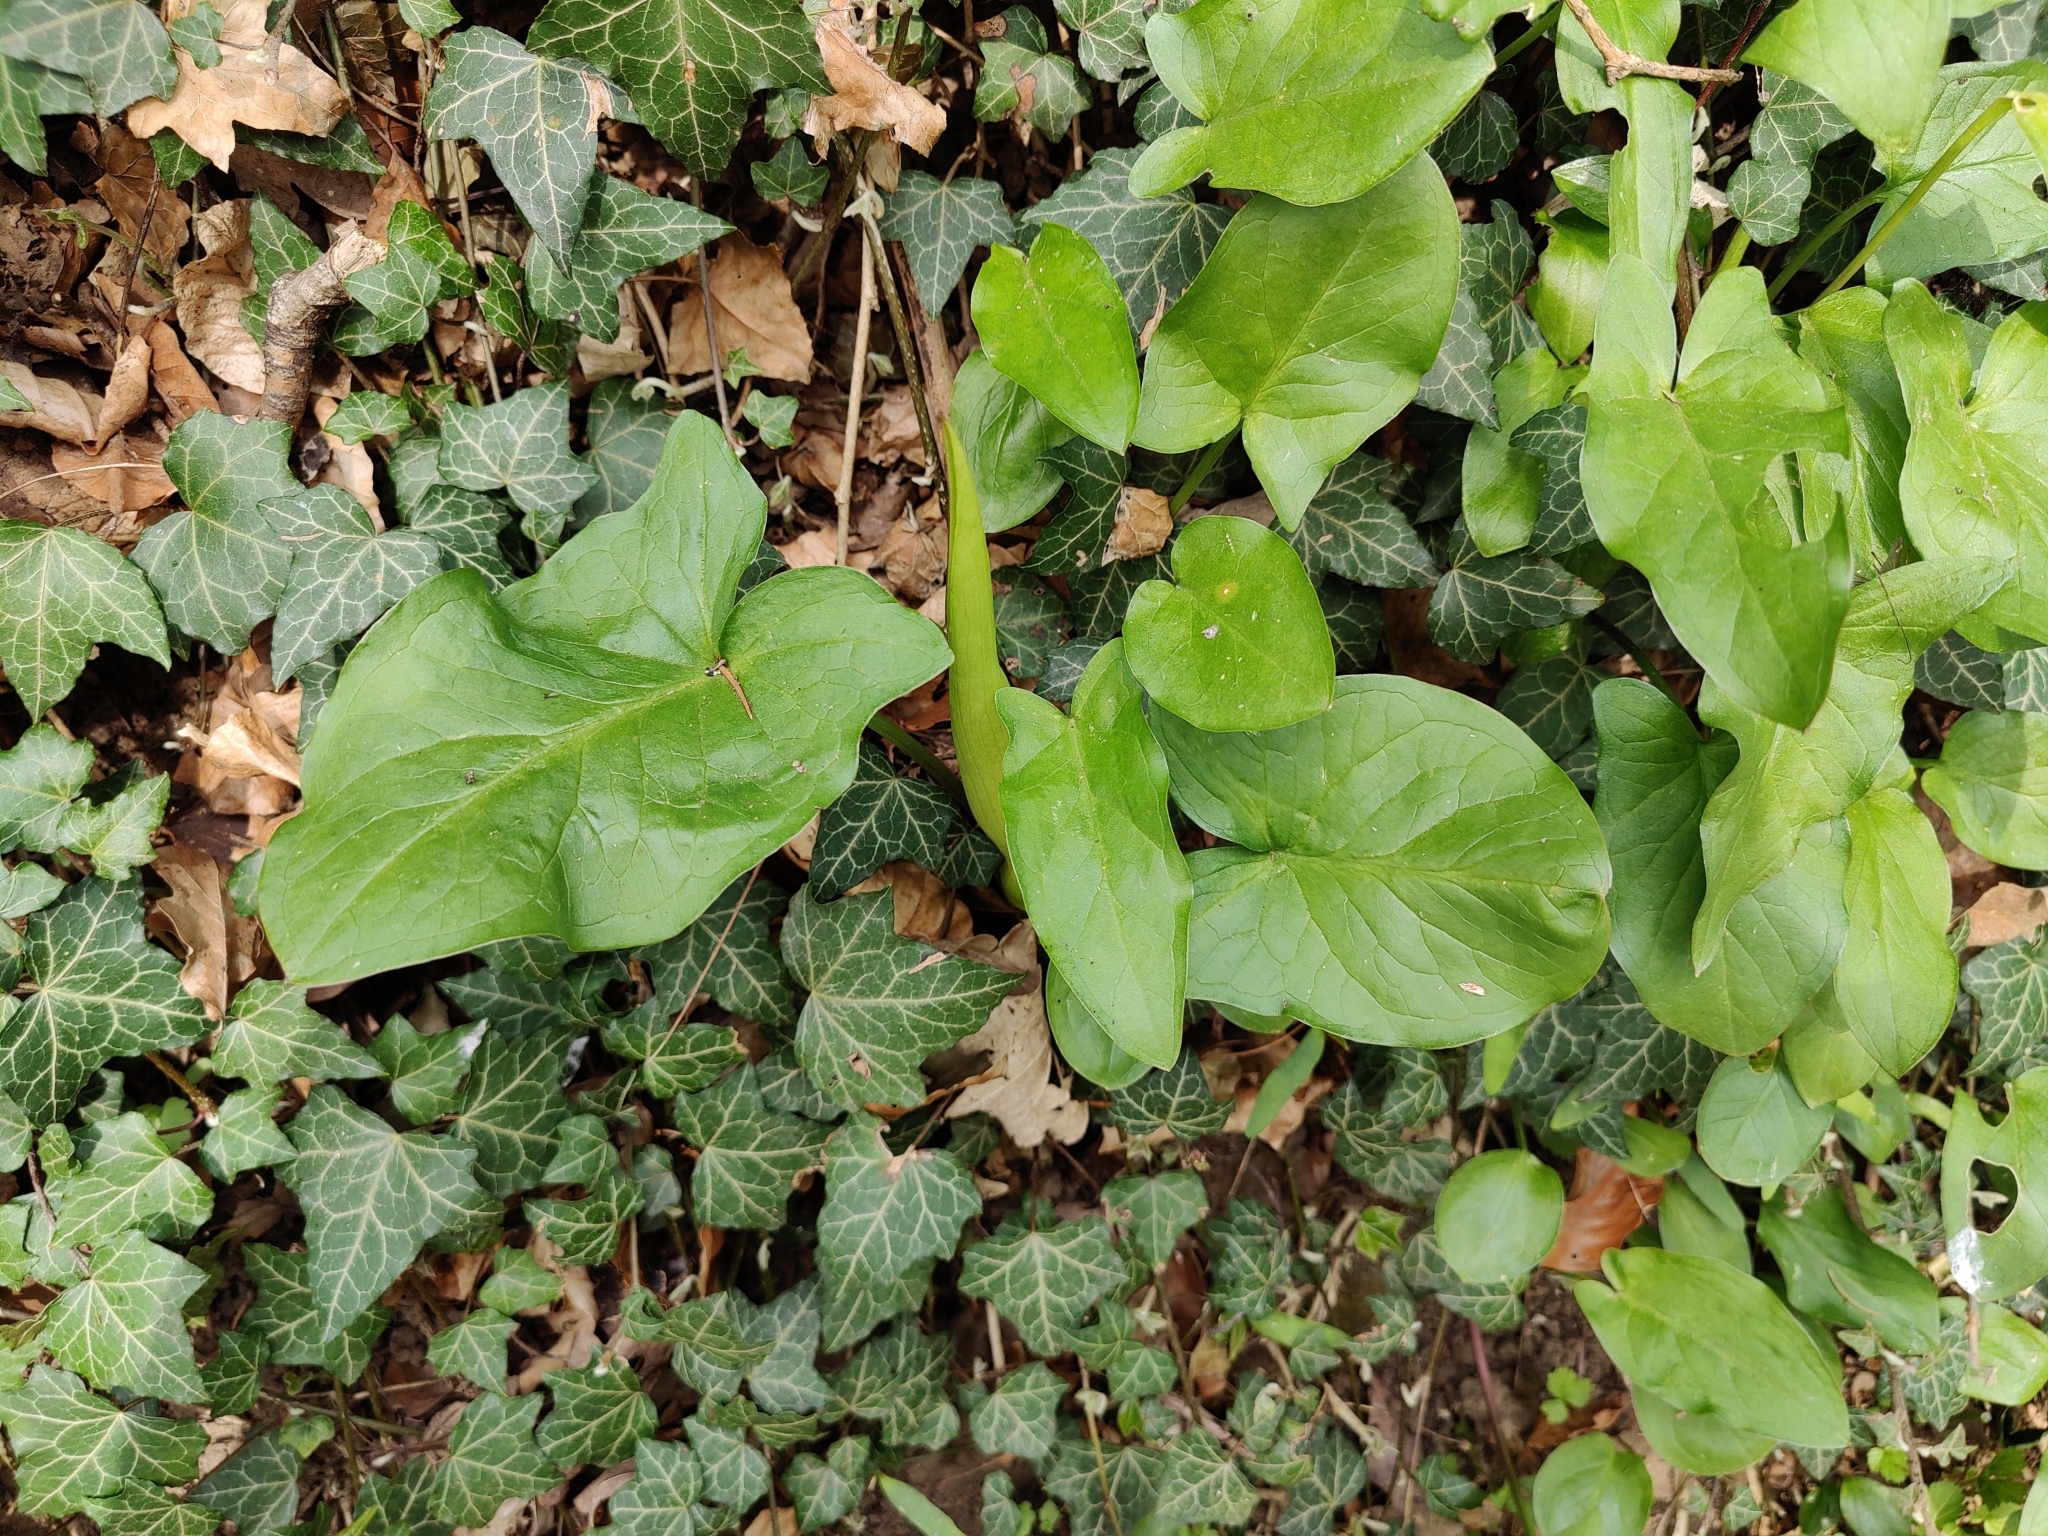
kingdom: Plantae
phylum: Tracheophyta
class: Liliopsida
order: Alismatales
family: Araceae
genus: Arum
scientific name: Arum maculatum
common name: Lords-and-ladies
